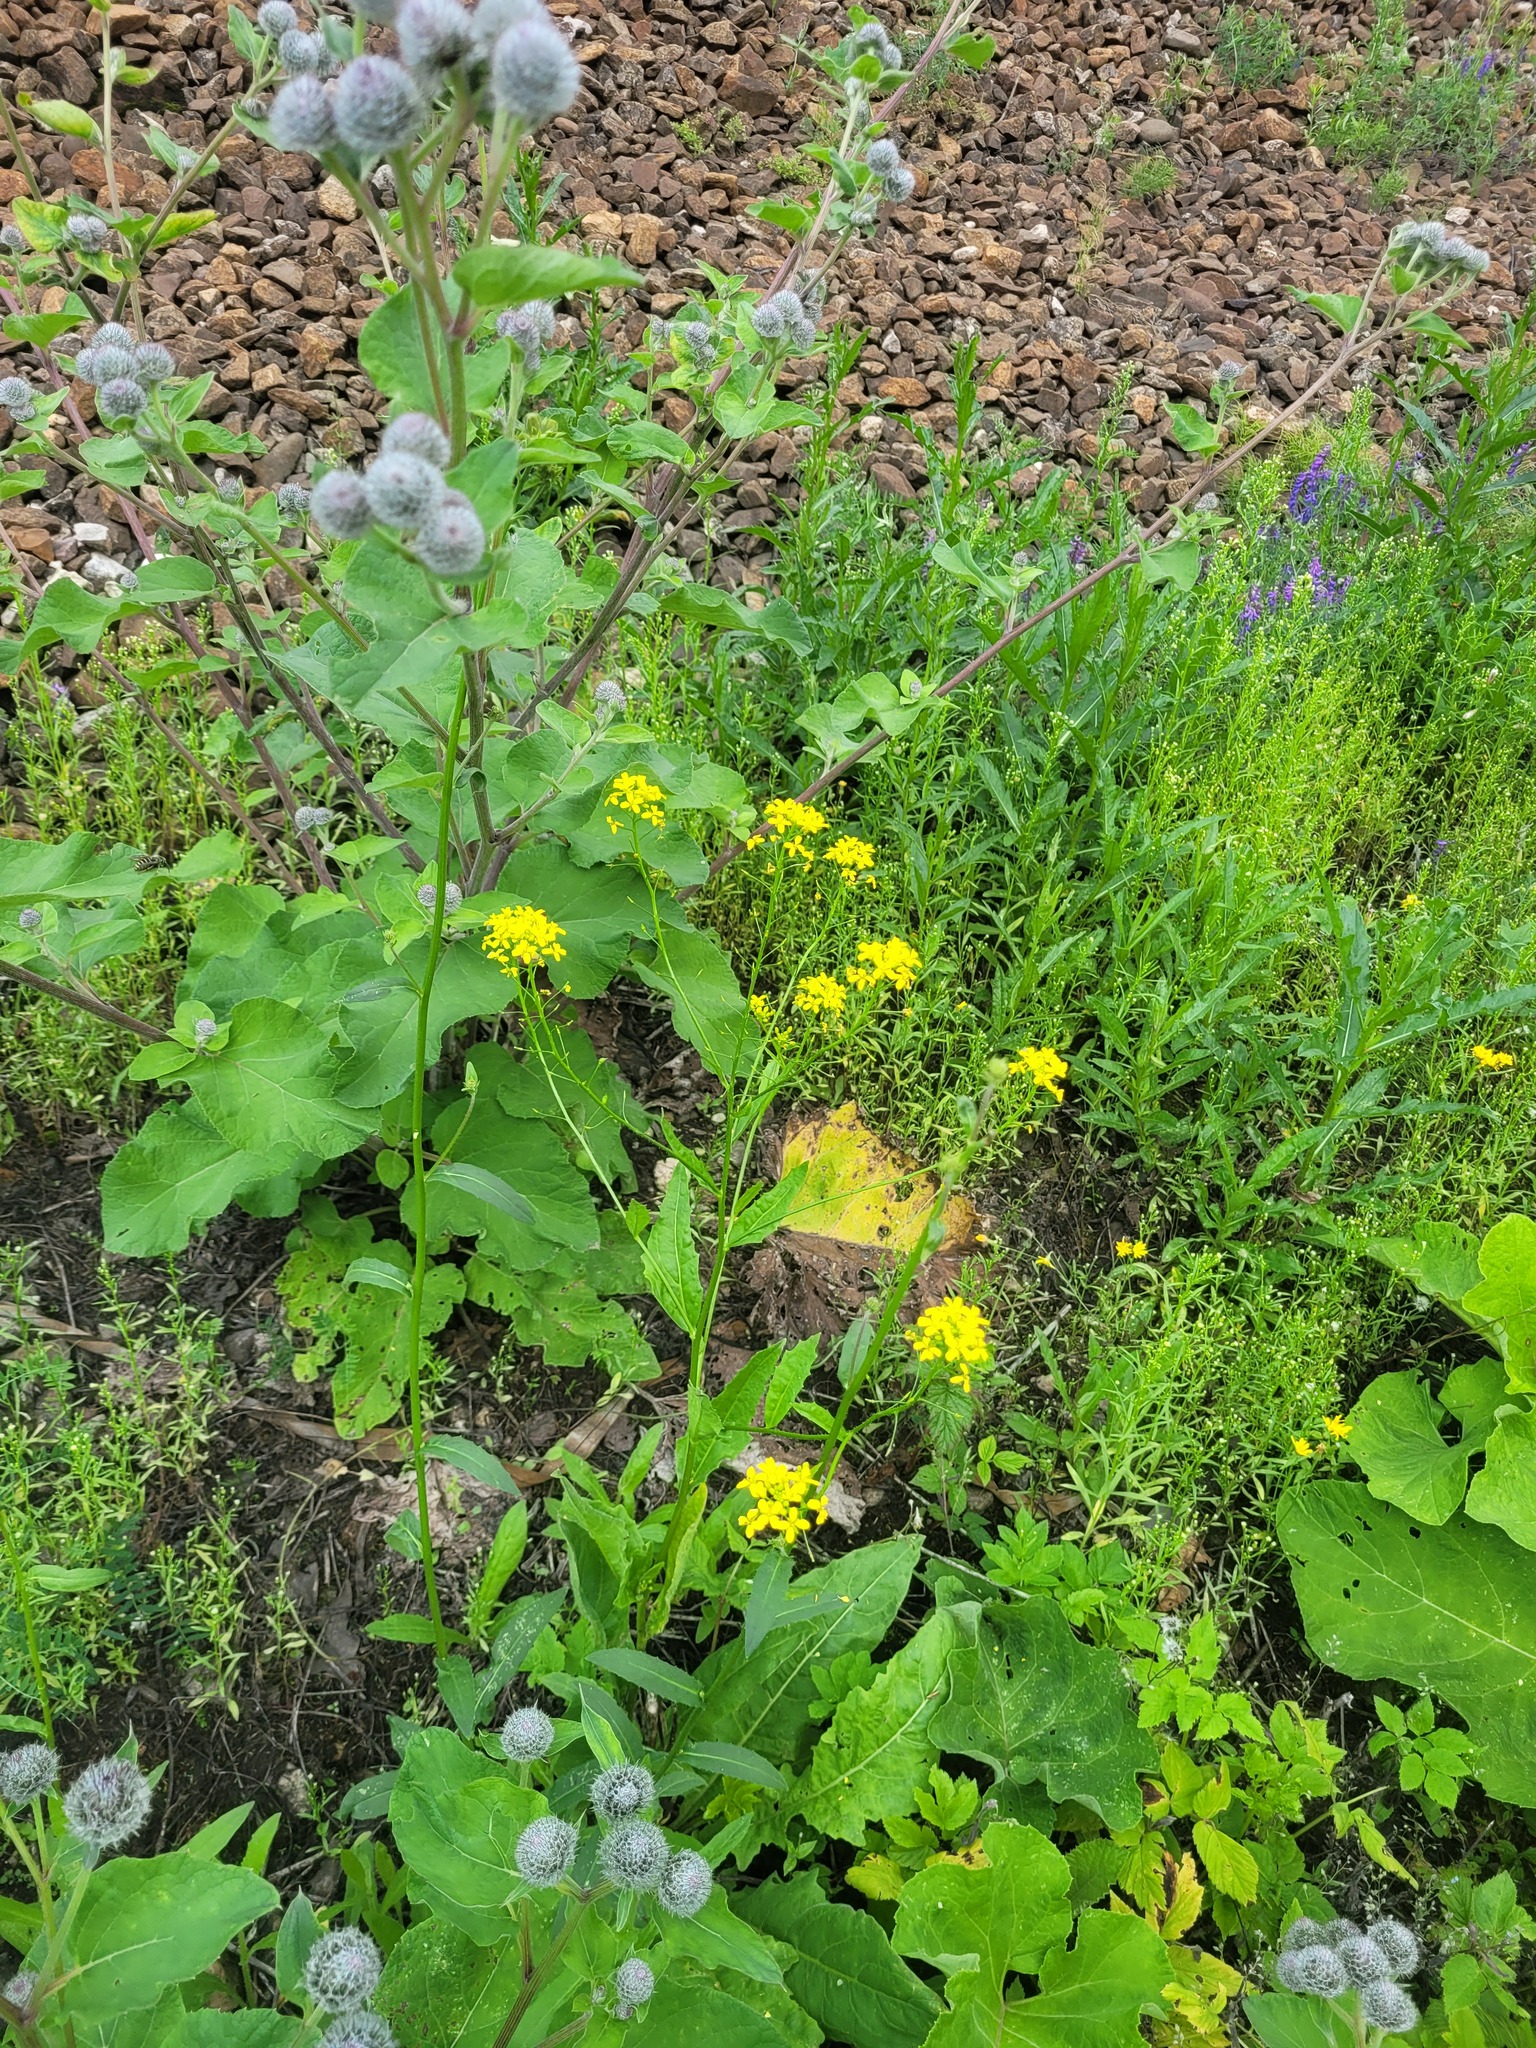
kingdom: Plantae
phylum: Tracheophyta
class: Magnoliopsida
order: Brassicales
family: Brassicaceae
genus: Bunias
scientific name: Bunias orientalis
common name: Warty-cabbage
